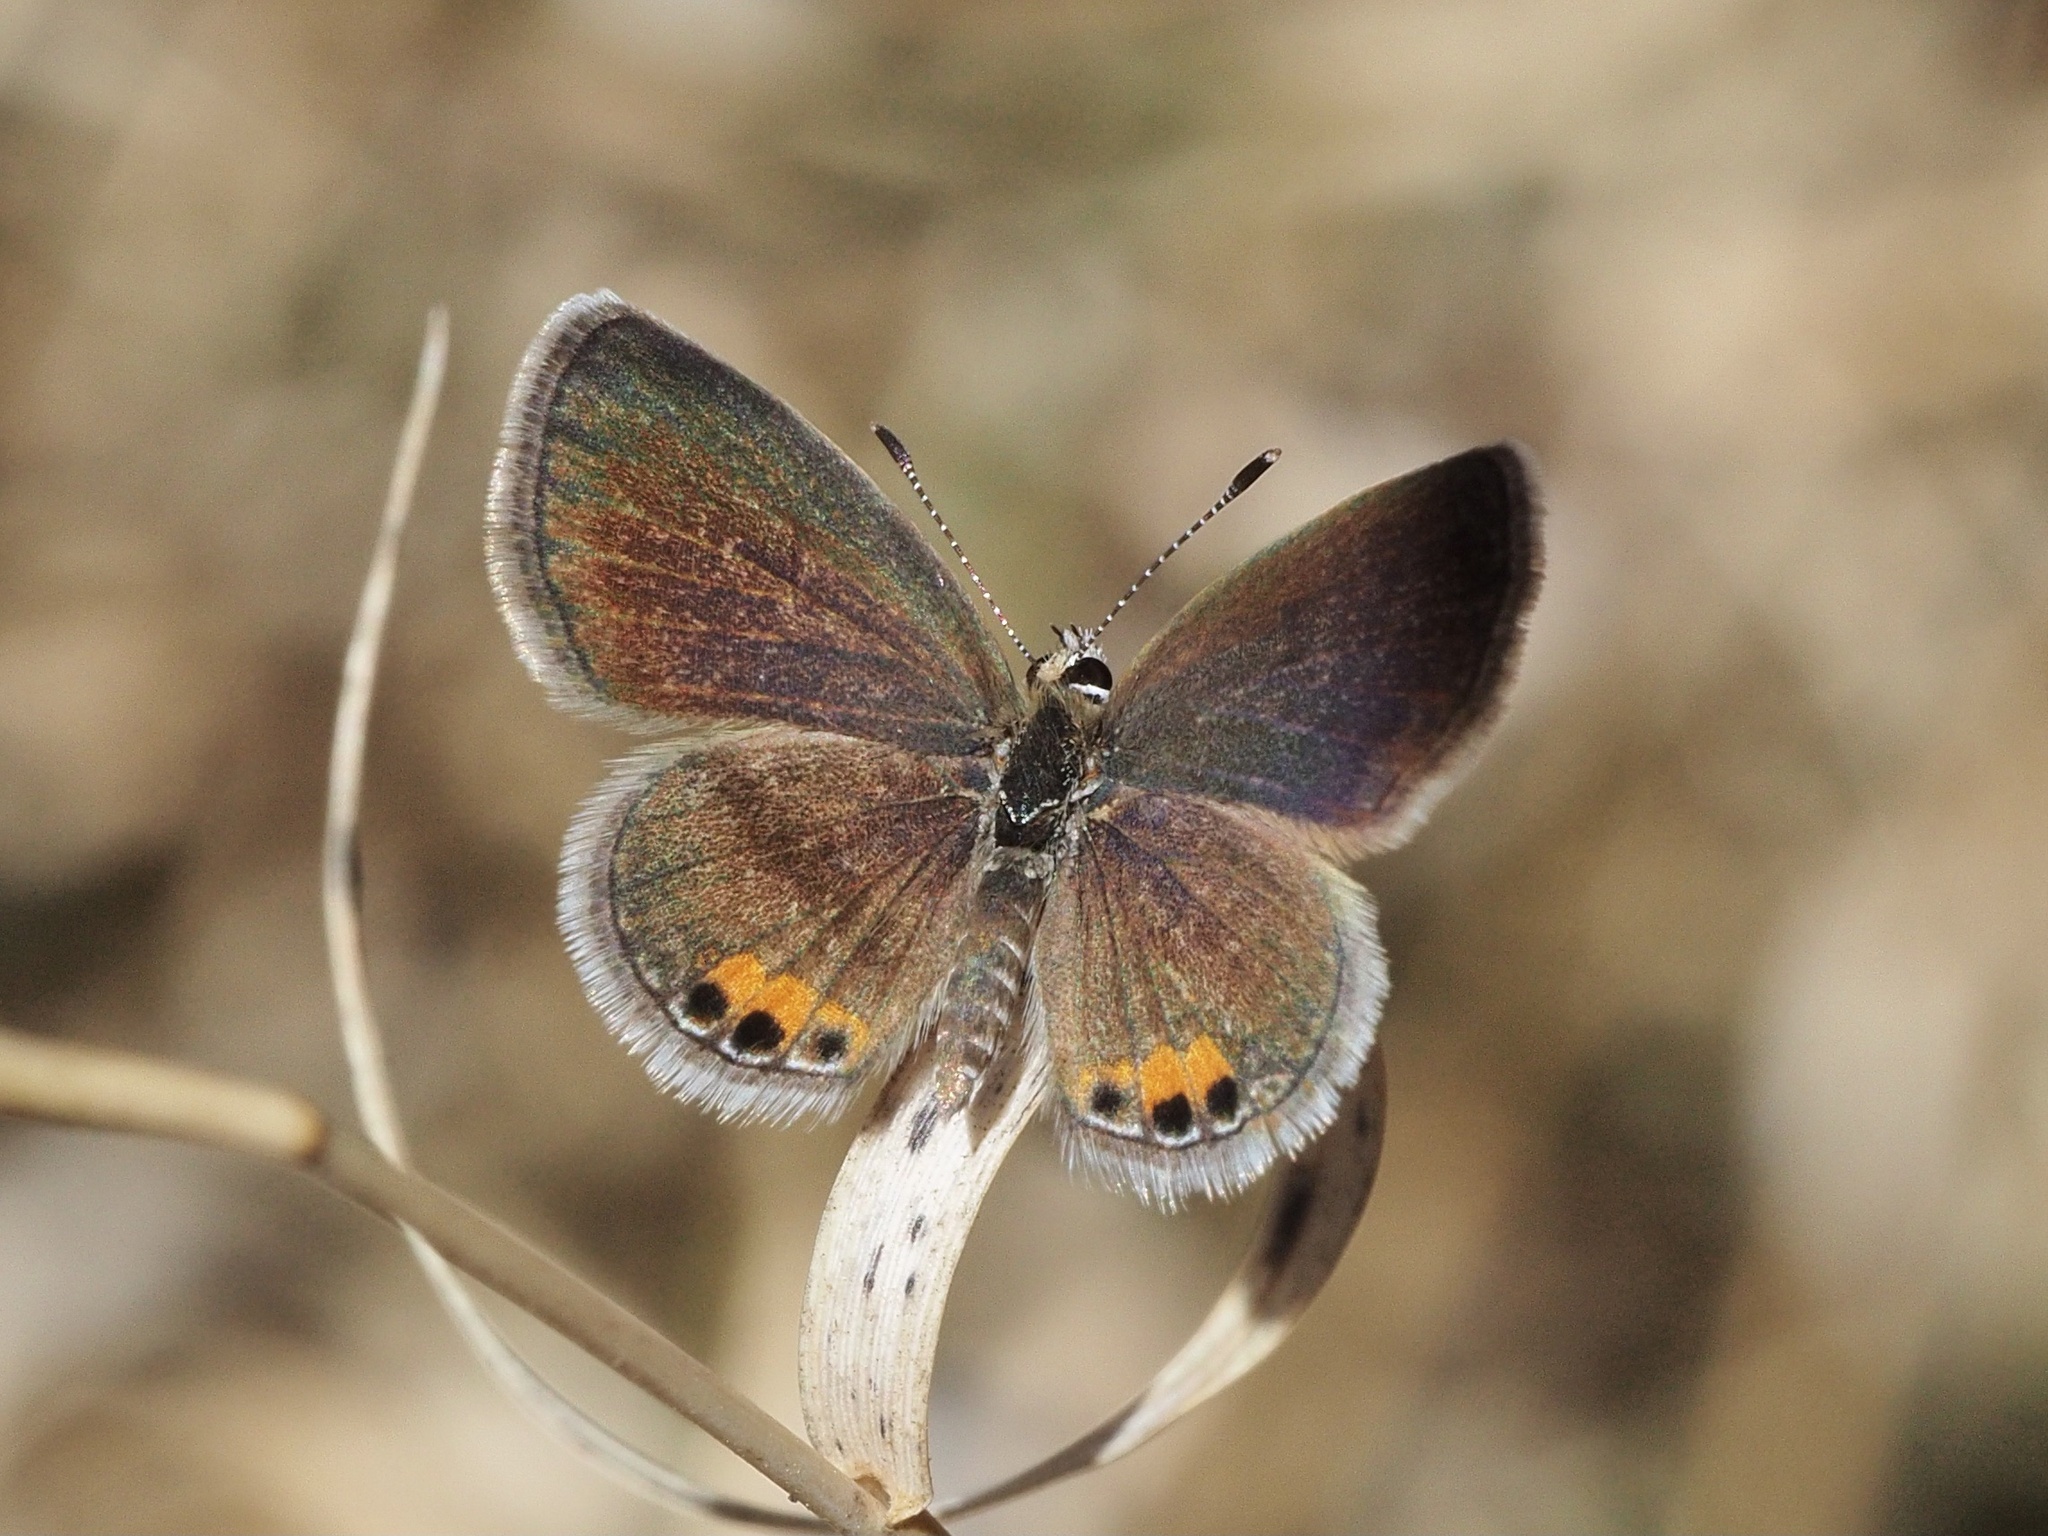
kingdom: Animalia
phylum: Arthropoda
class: Insecta
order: Lepidoptera
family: Lycaenidae
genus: Freyeria
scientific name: Freyeria trochylus
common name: Grass jewel
